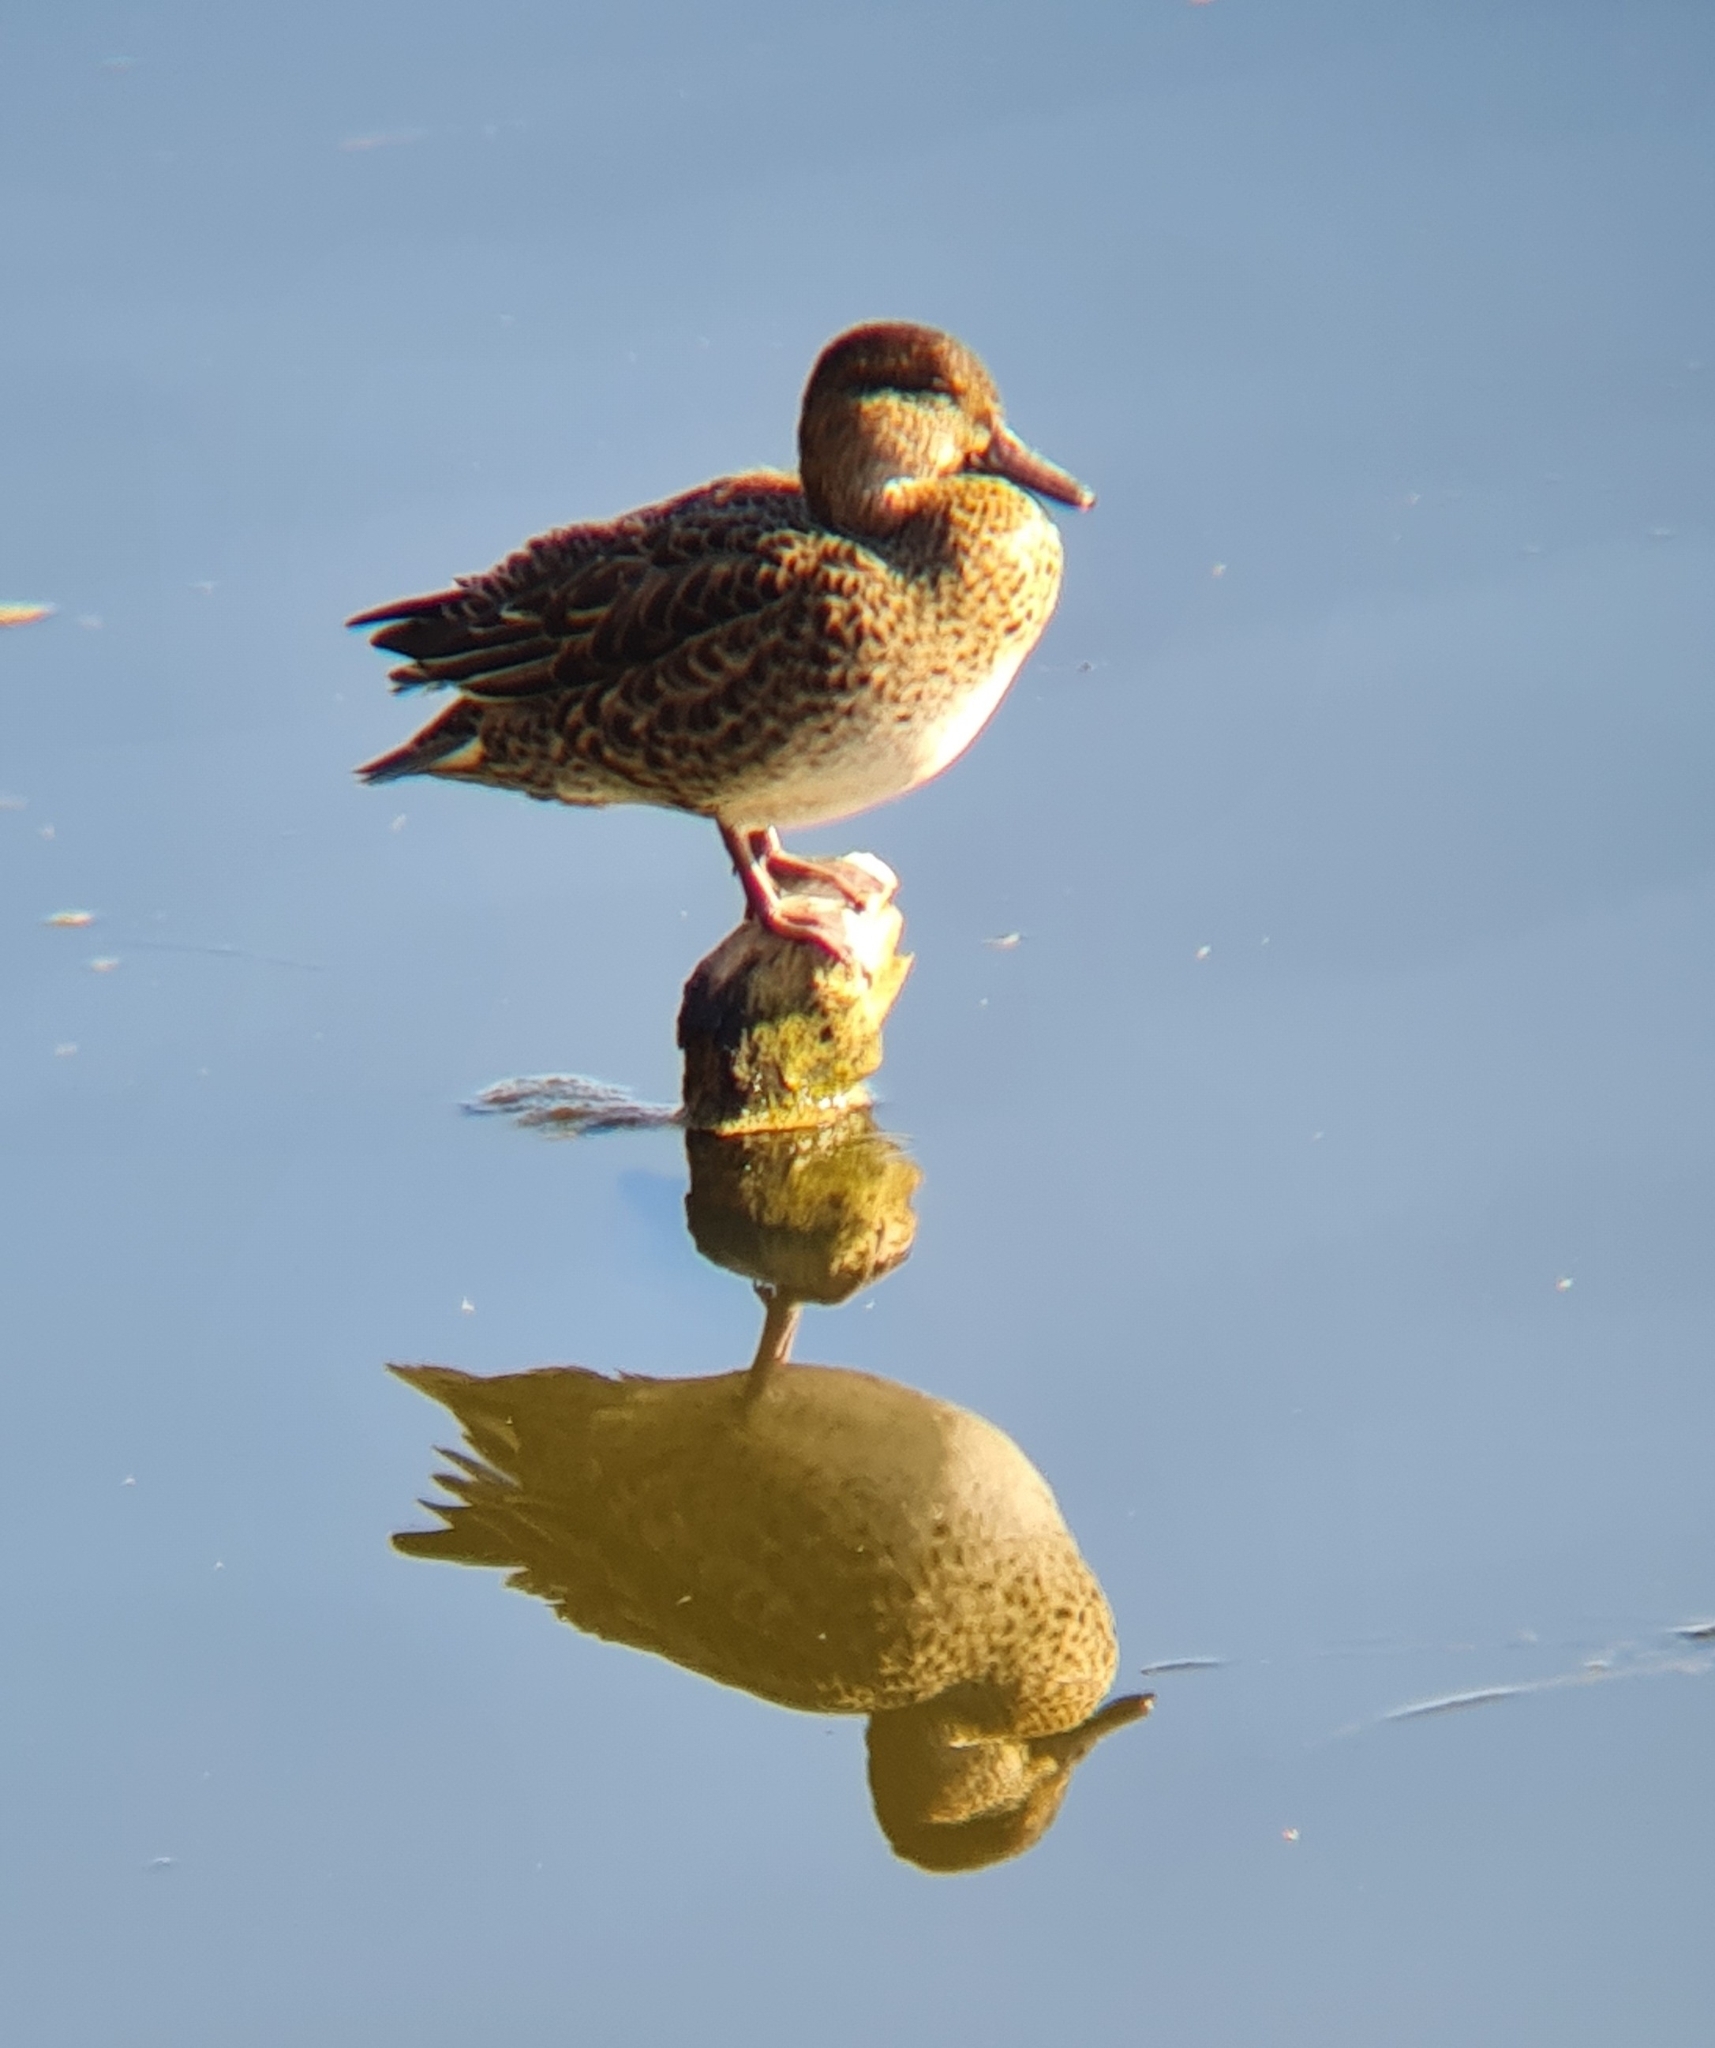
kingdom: Animalia
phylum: Chordata
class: Aves
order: Anseriformes
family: Anatidae
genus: Anas
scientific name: Anas crecca
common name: Eurasian teal
